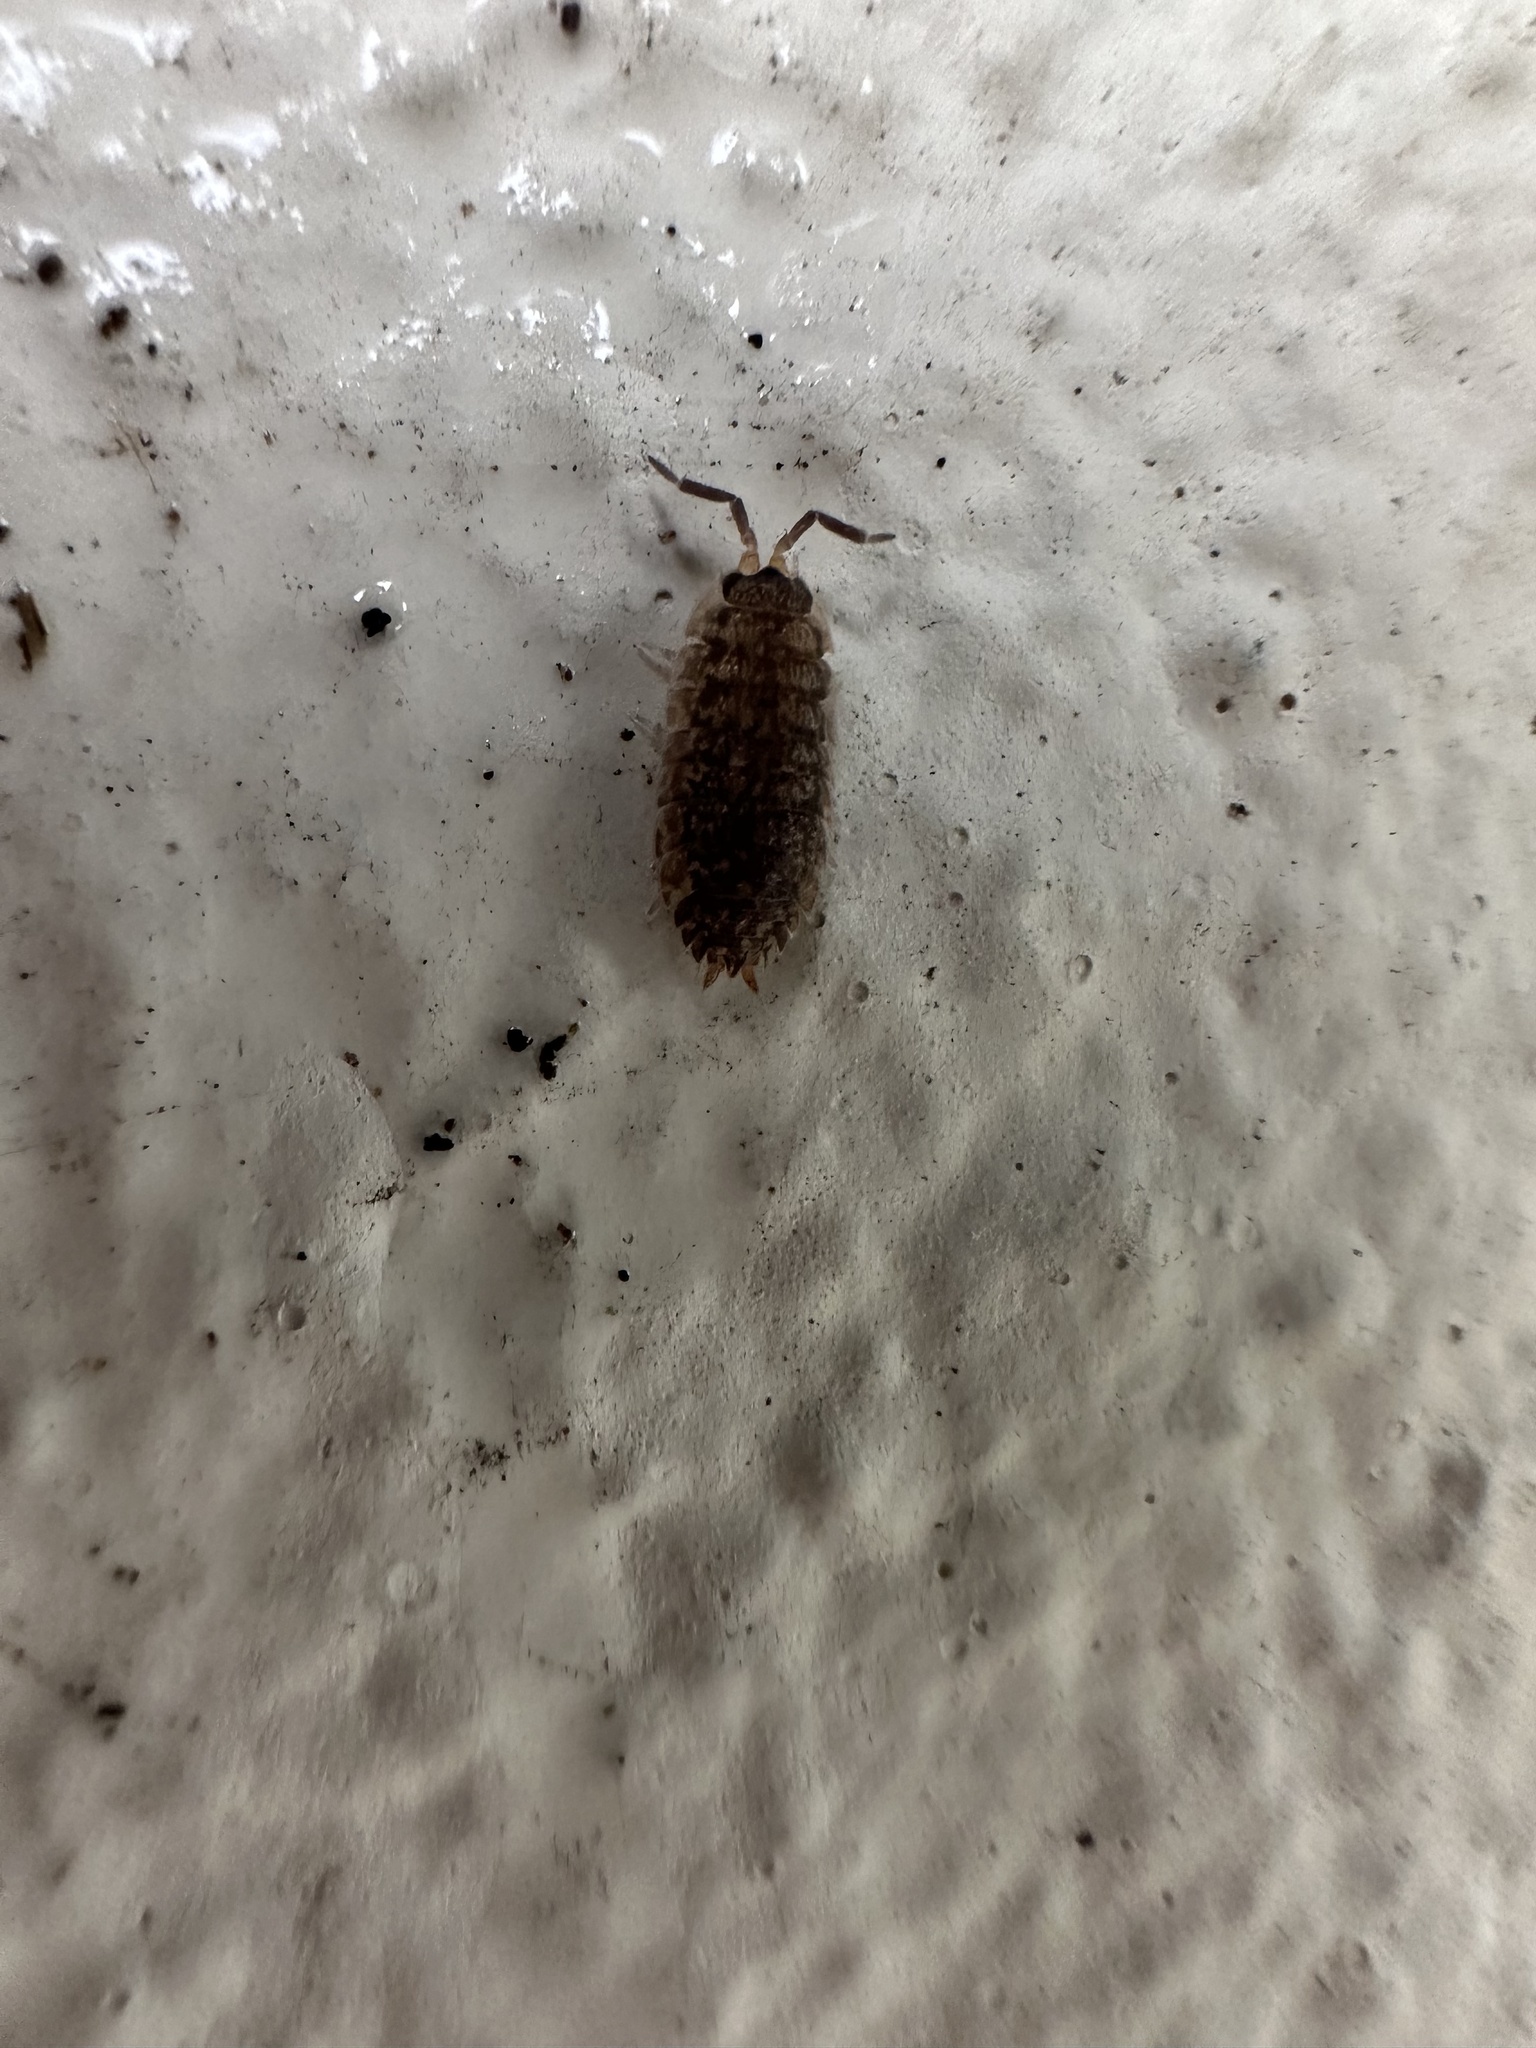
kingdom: Animalia
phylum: Arthropoda
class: Malacostraca
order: Isopoda
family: Porcellionidae
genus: Porcellio
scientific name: Porcellio scaber
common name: Common rough woodlouse
